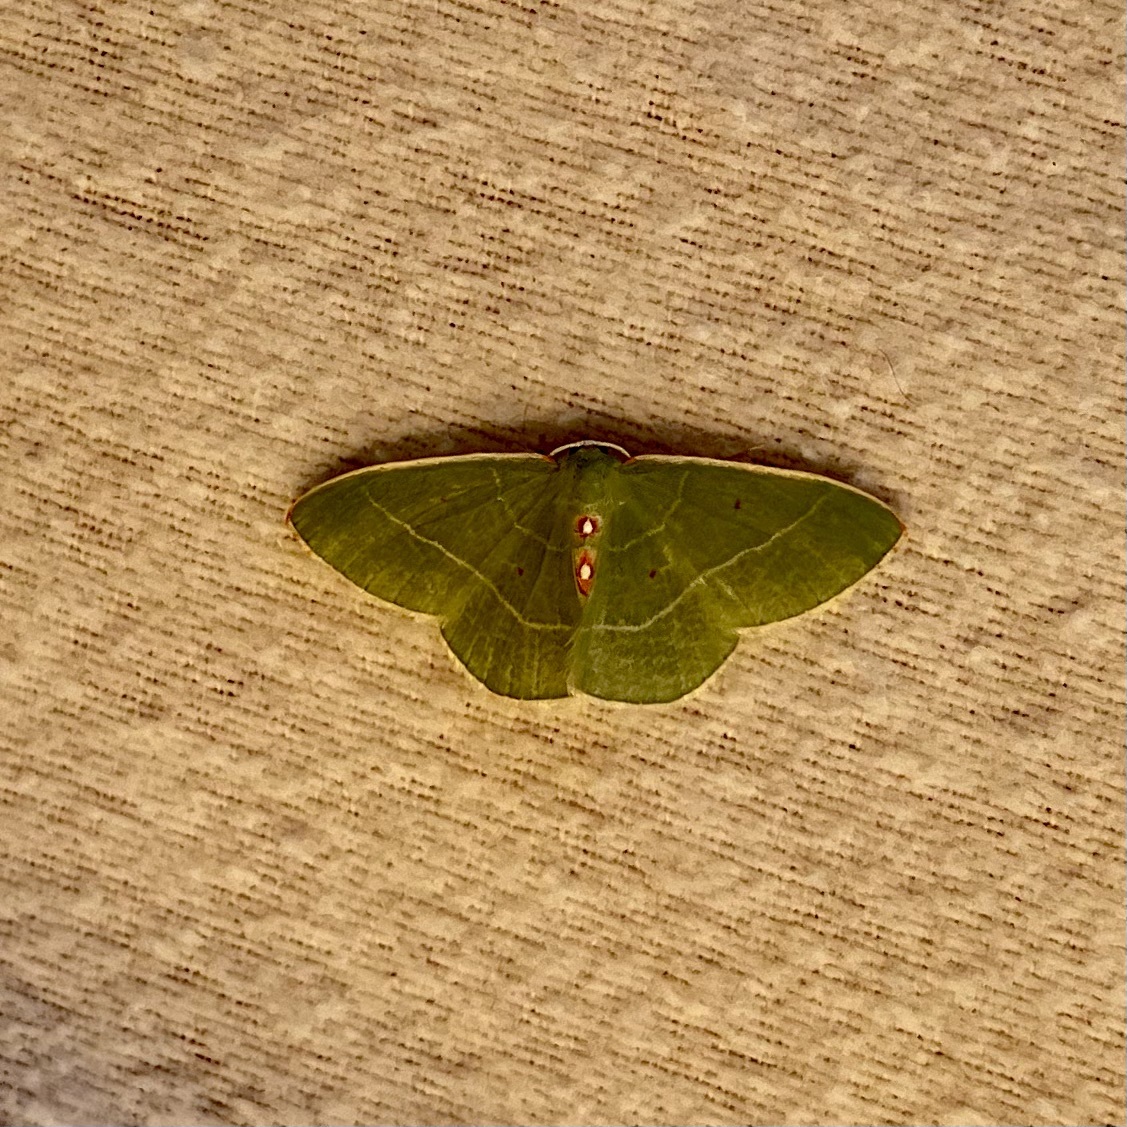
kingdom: Animalia
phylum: Arthropoda
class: Insecta
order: Lepidoptera
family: Geometridae
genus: Nemoria
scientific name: Nemoria darwiniata
